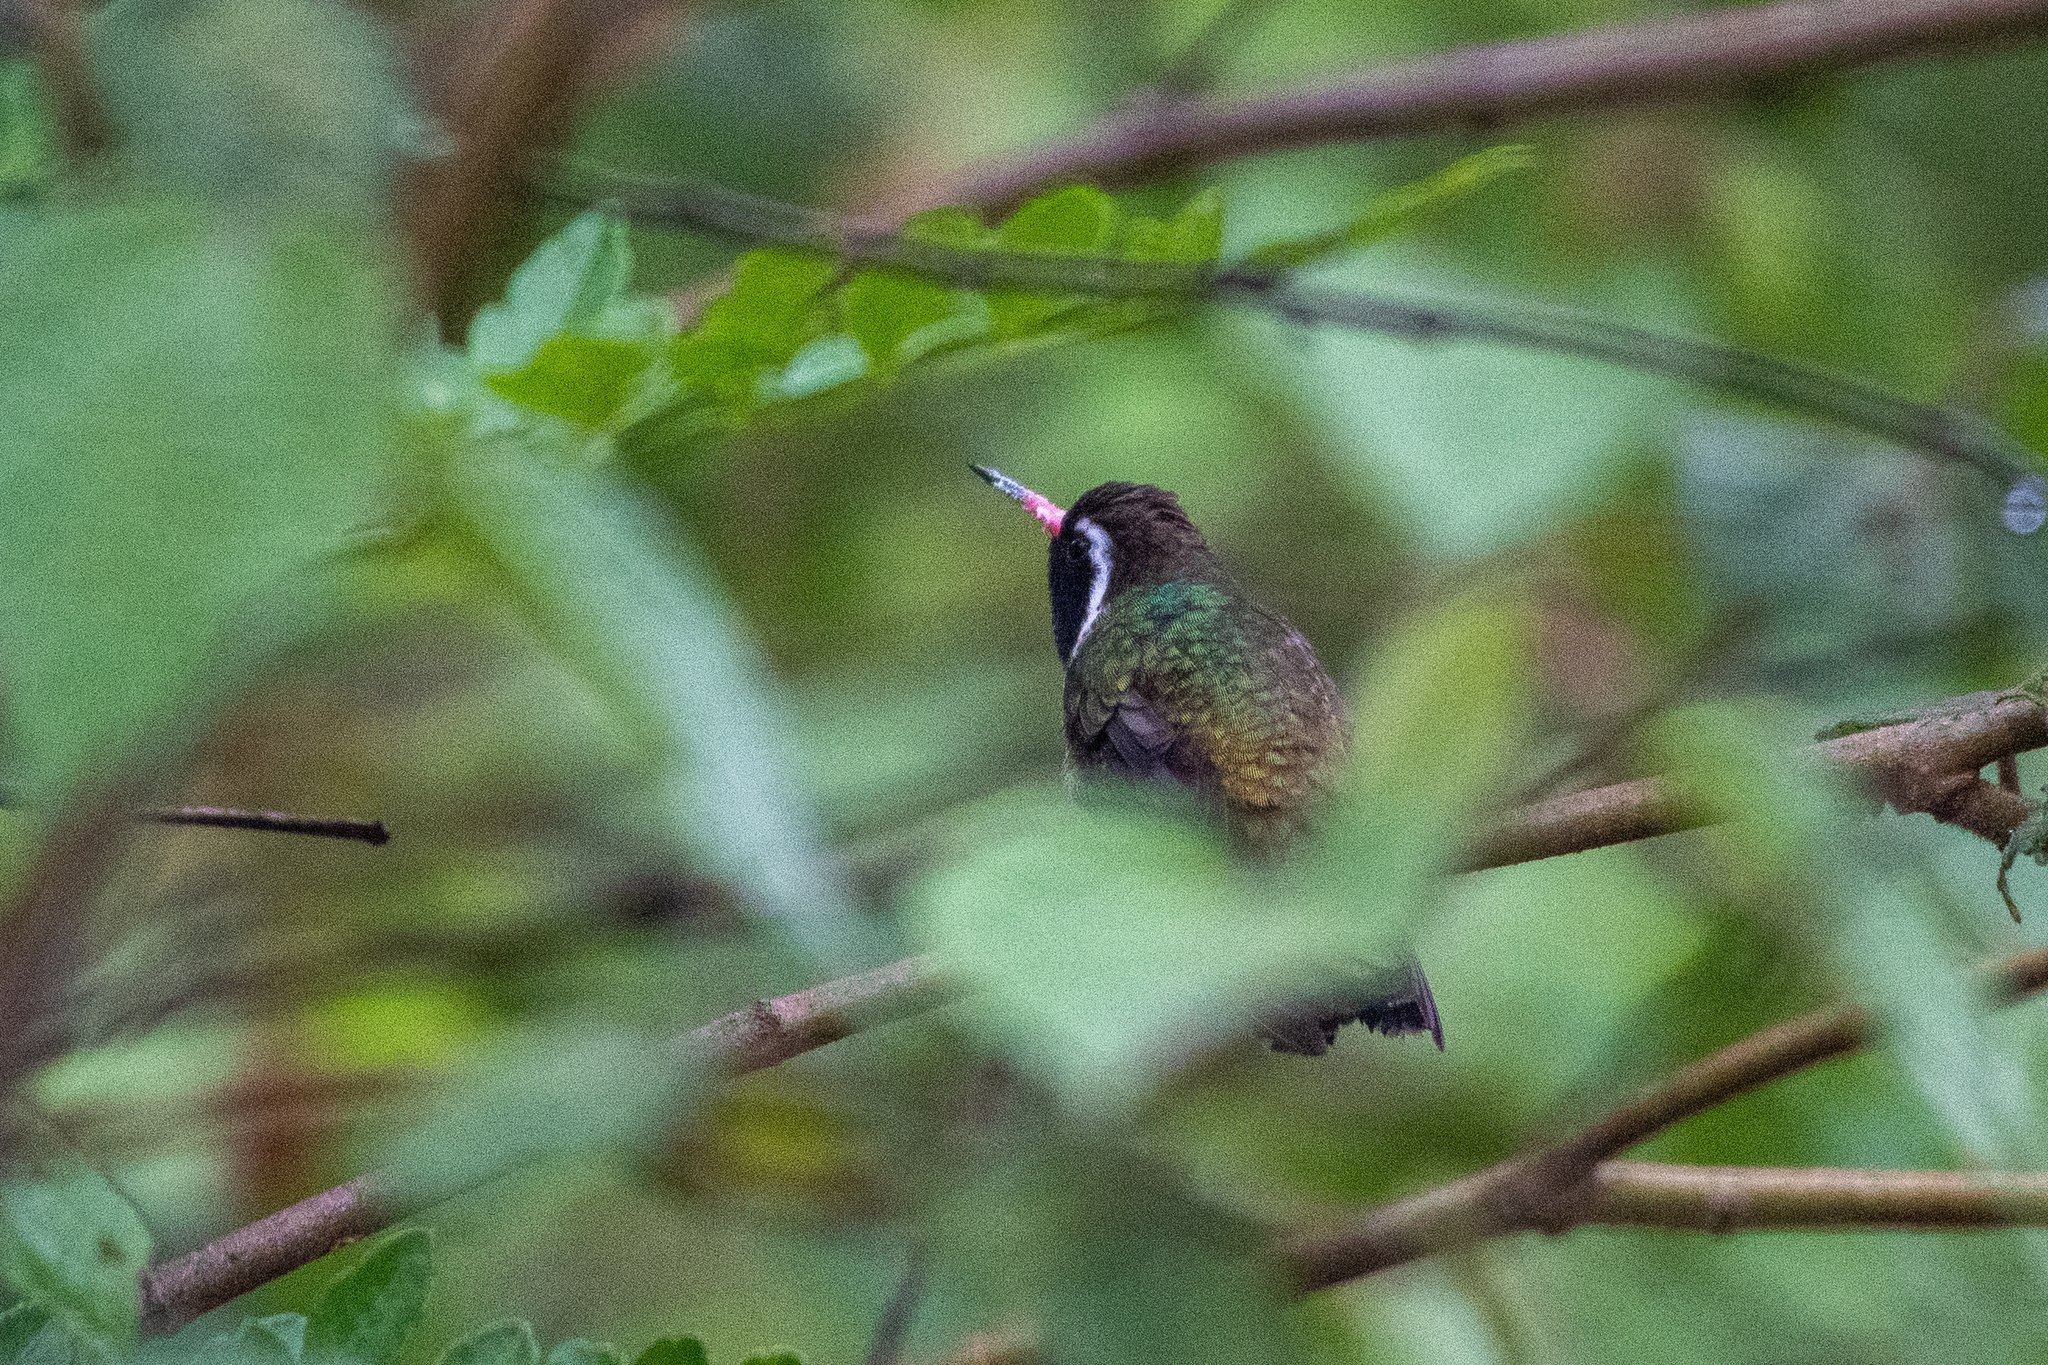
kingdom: Animalia
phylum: Chordata
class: Aves
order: Apodiformes
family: Trochilidae
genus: Basilinna
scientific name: Basilinna leucotis
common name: White-eared hummingbird
